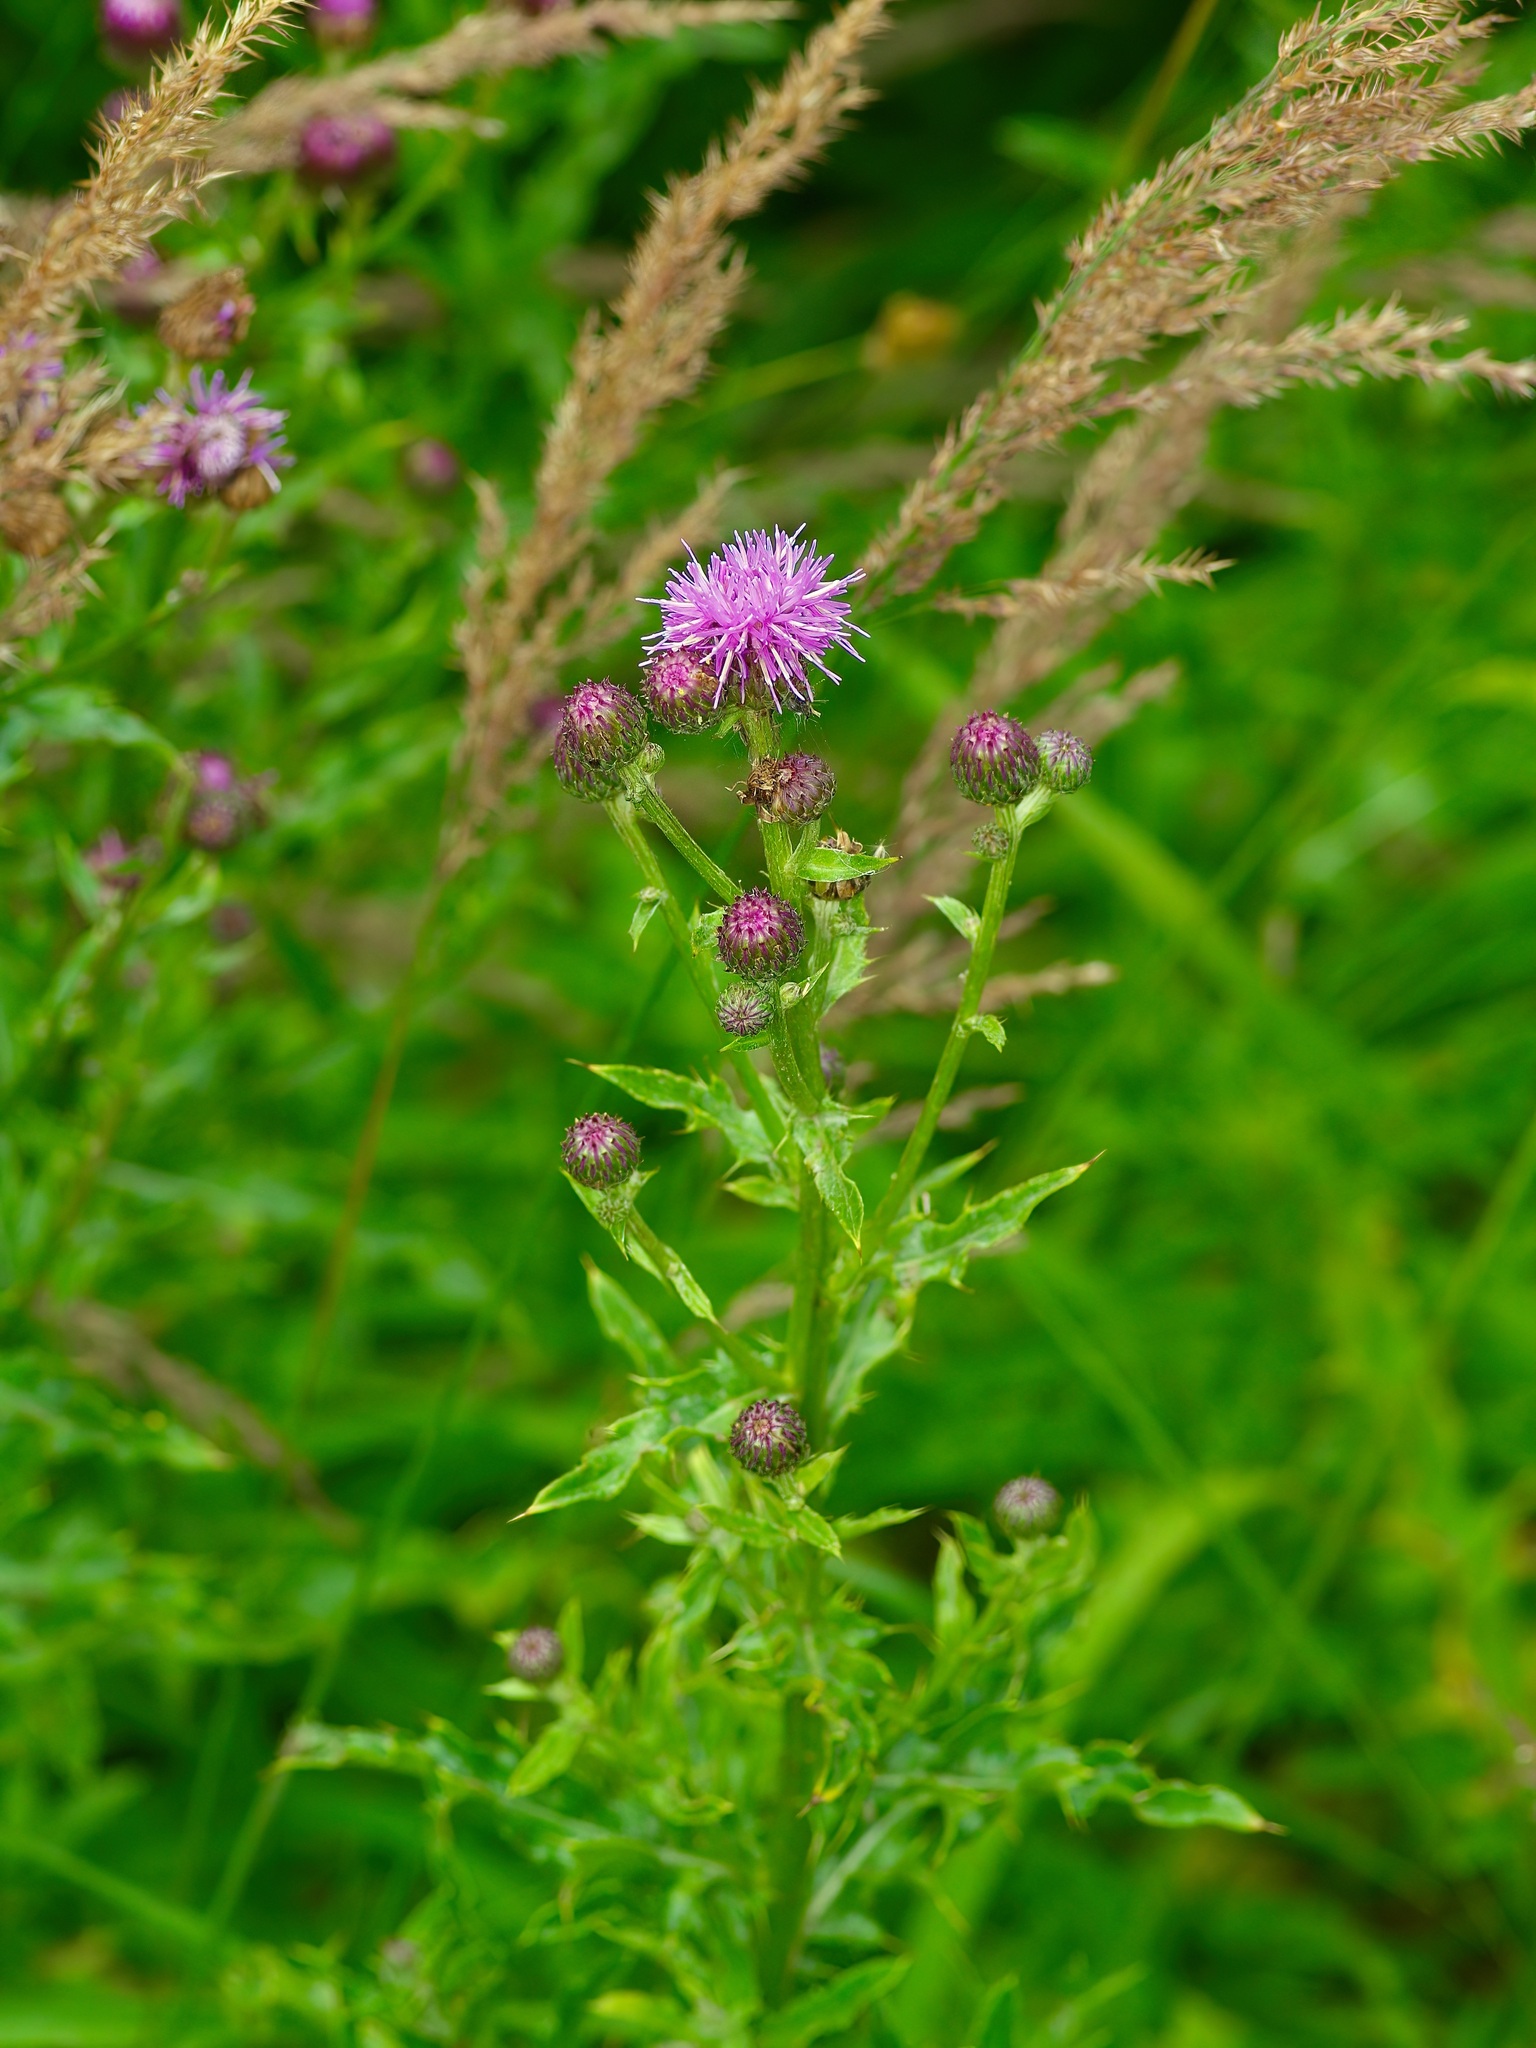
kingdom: Plantae
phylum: Tracheophyta
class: Magnoliopsida
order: Asterales
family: Asteraceae
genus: Cirsium
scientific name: Cirsium arvense
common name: Creeping thistle
